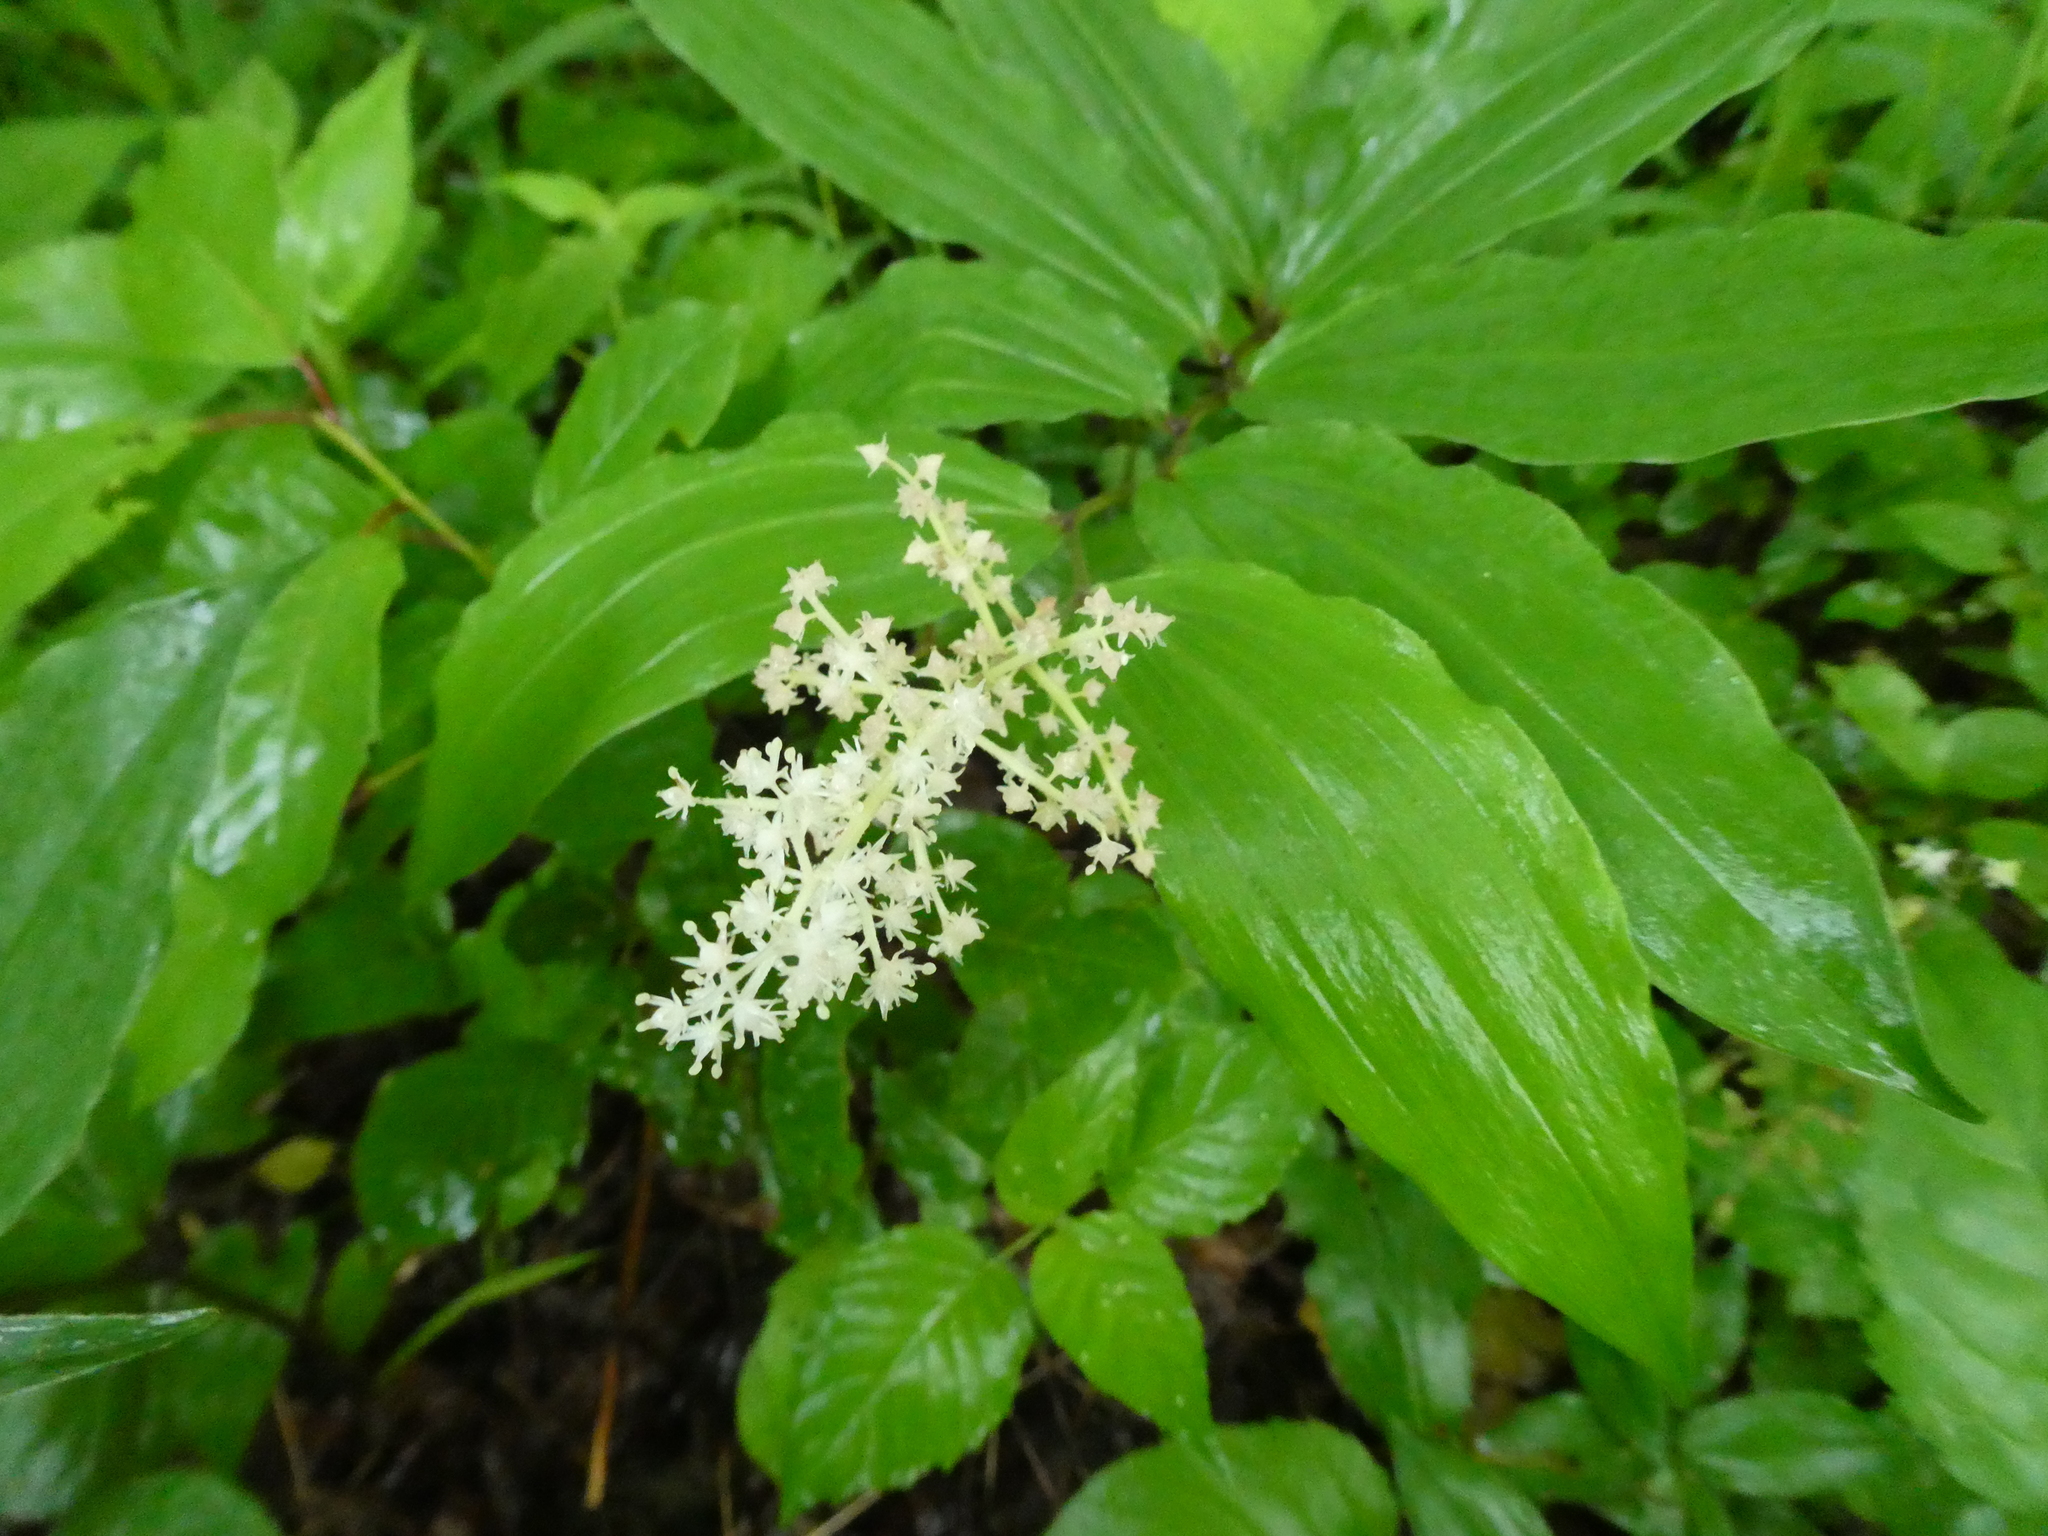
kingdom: Plantae
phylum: Tracheophyta
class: Liliopsida
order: Asparagales
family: Asparagaceae
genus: Maianthemum
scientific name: Maianthemum racemosum
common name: False spikenard
